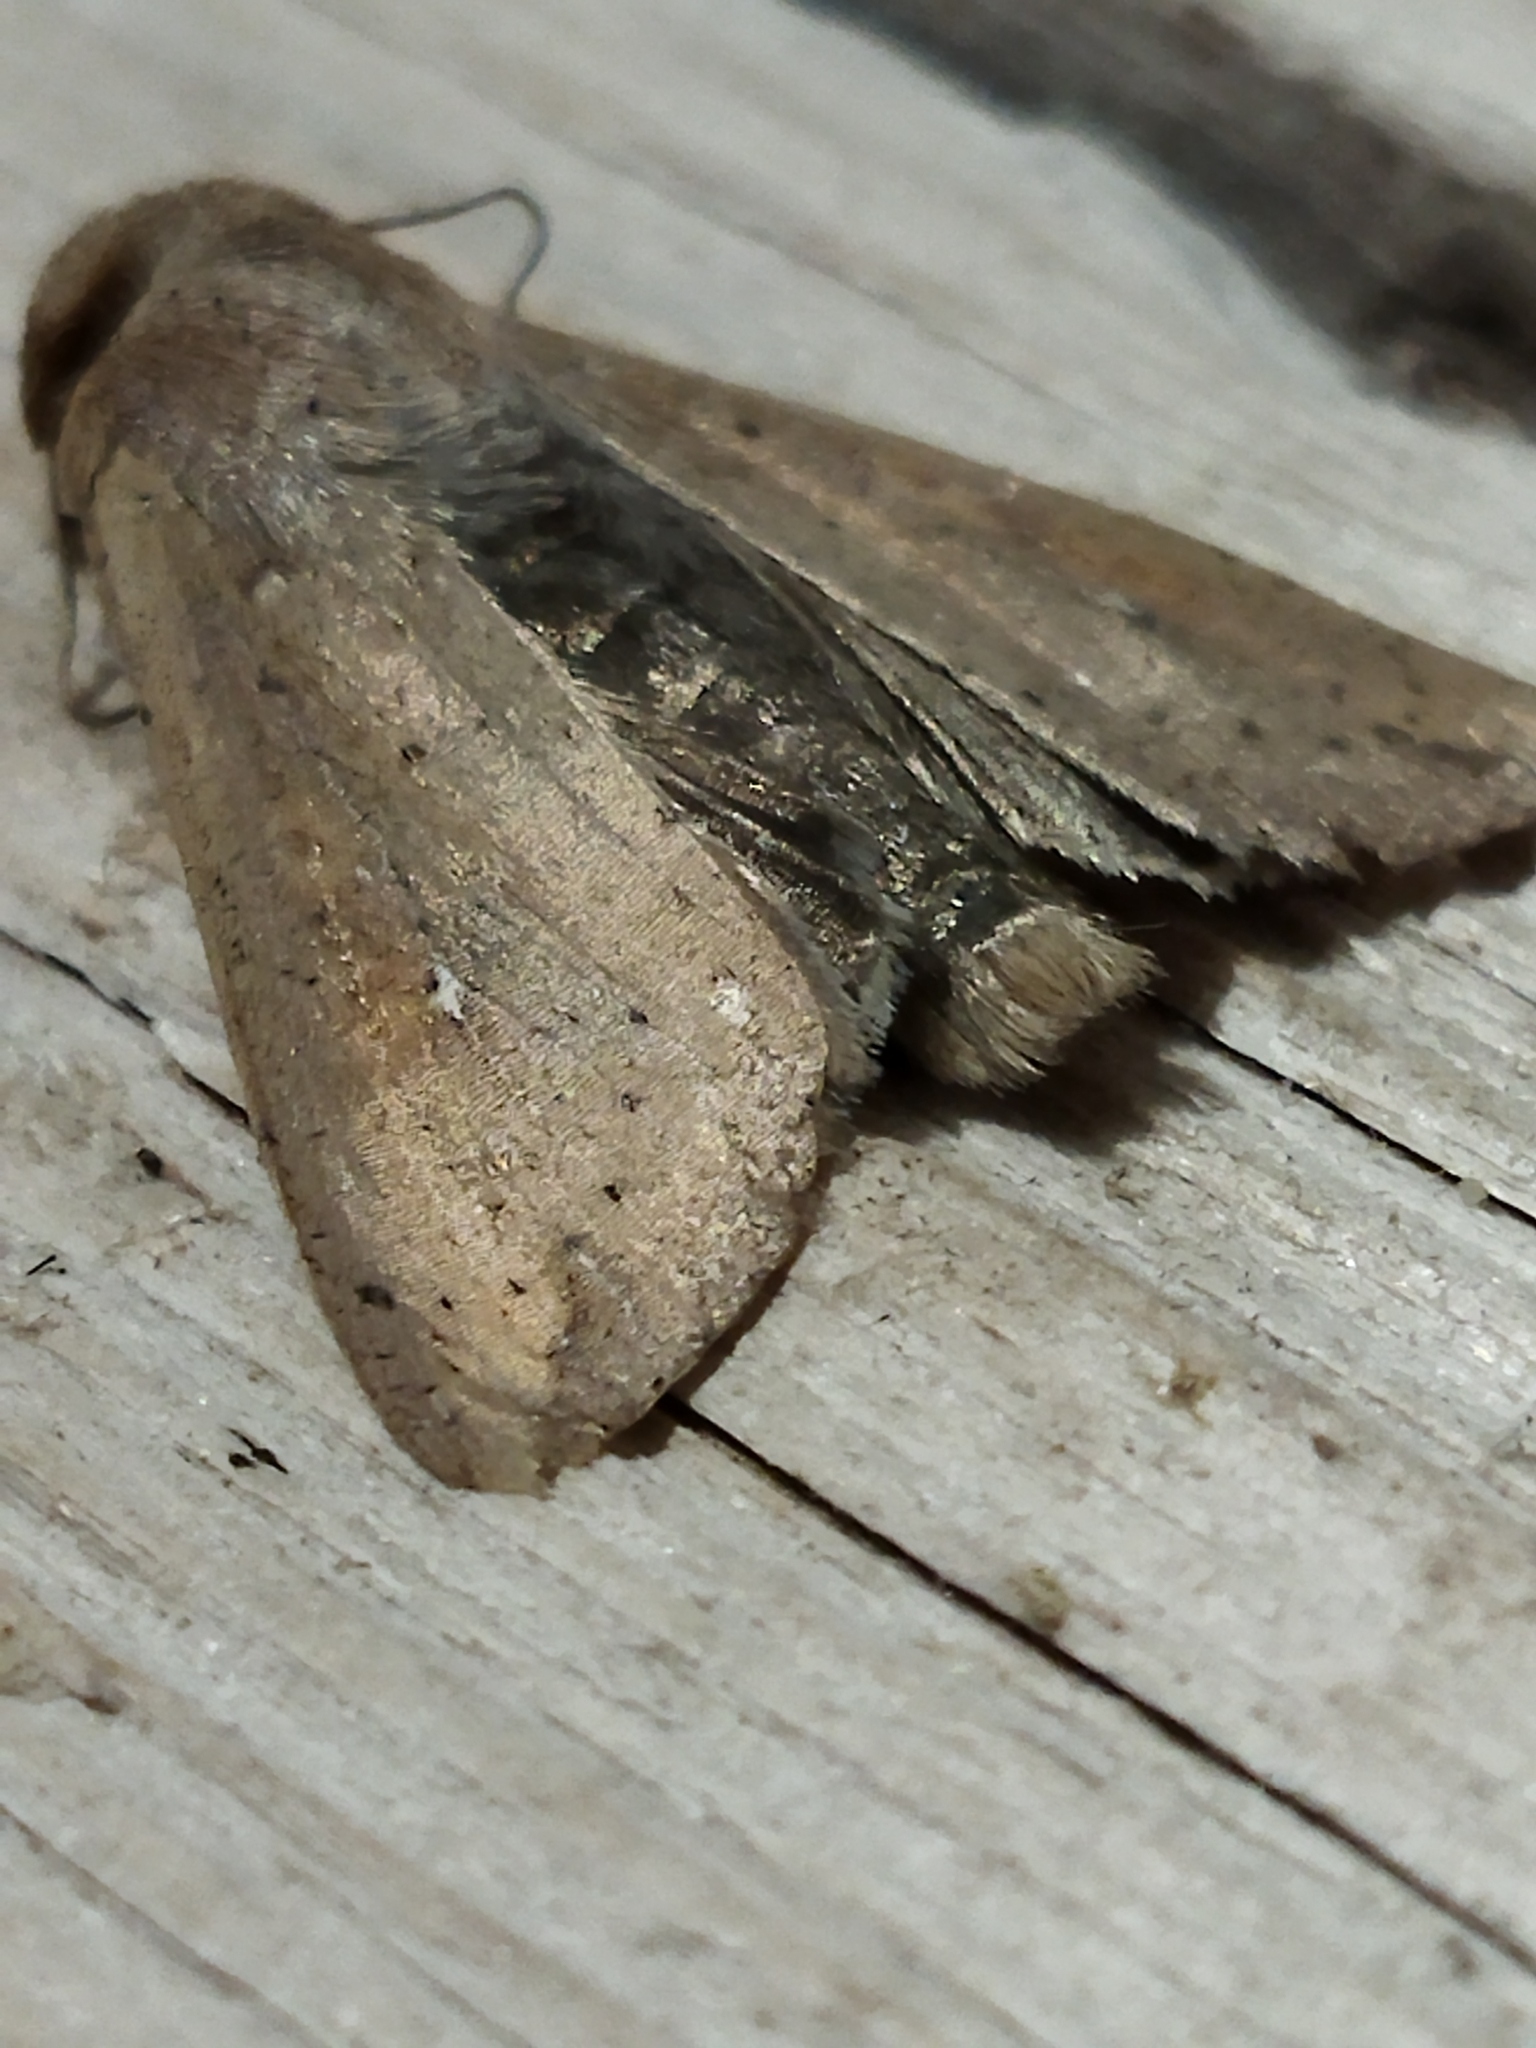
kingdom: Animalia
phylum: Arthropoda
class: Insecta
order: Lepidoptera
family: Noctuidae
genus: Mythimna
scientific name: Mythimna unipuncta
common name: White-speck
